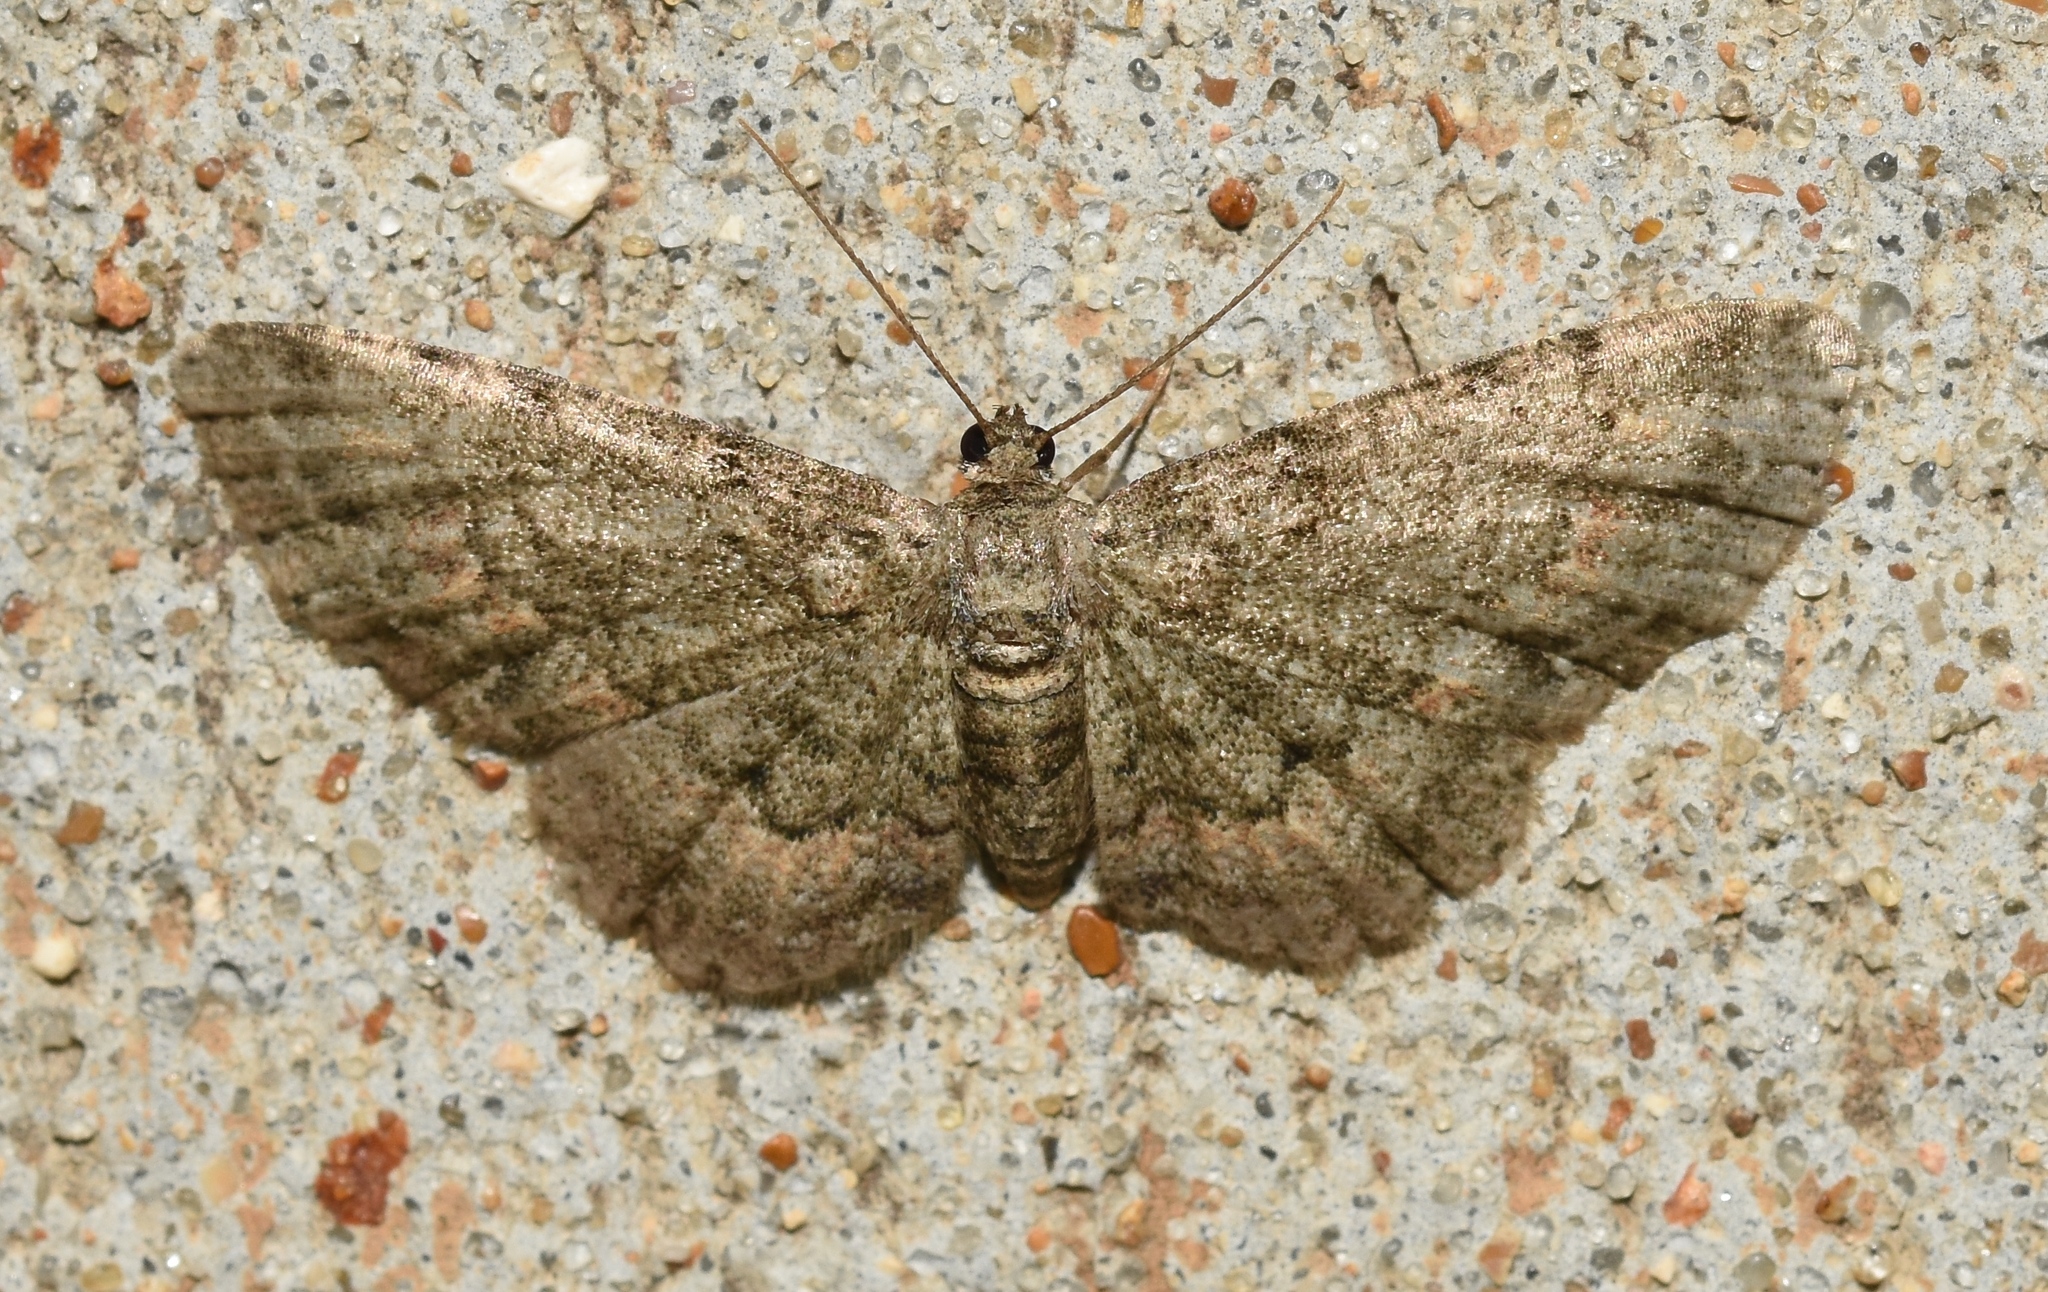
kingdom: Animalia
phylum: Arthropoda
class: Insecta
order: Lepidoptera
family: Geometridae
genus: Glenoides
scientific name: Glenoides texanaria
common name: Texas gray
